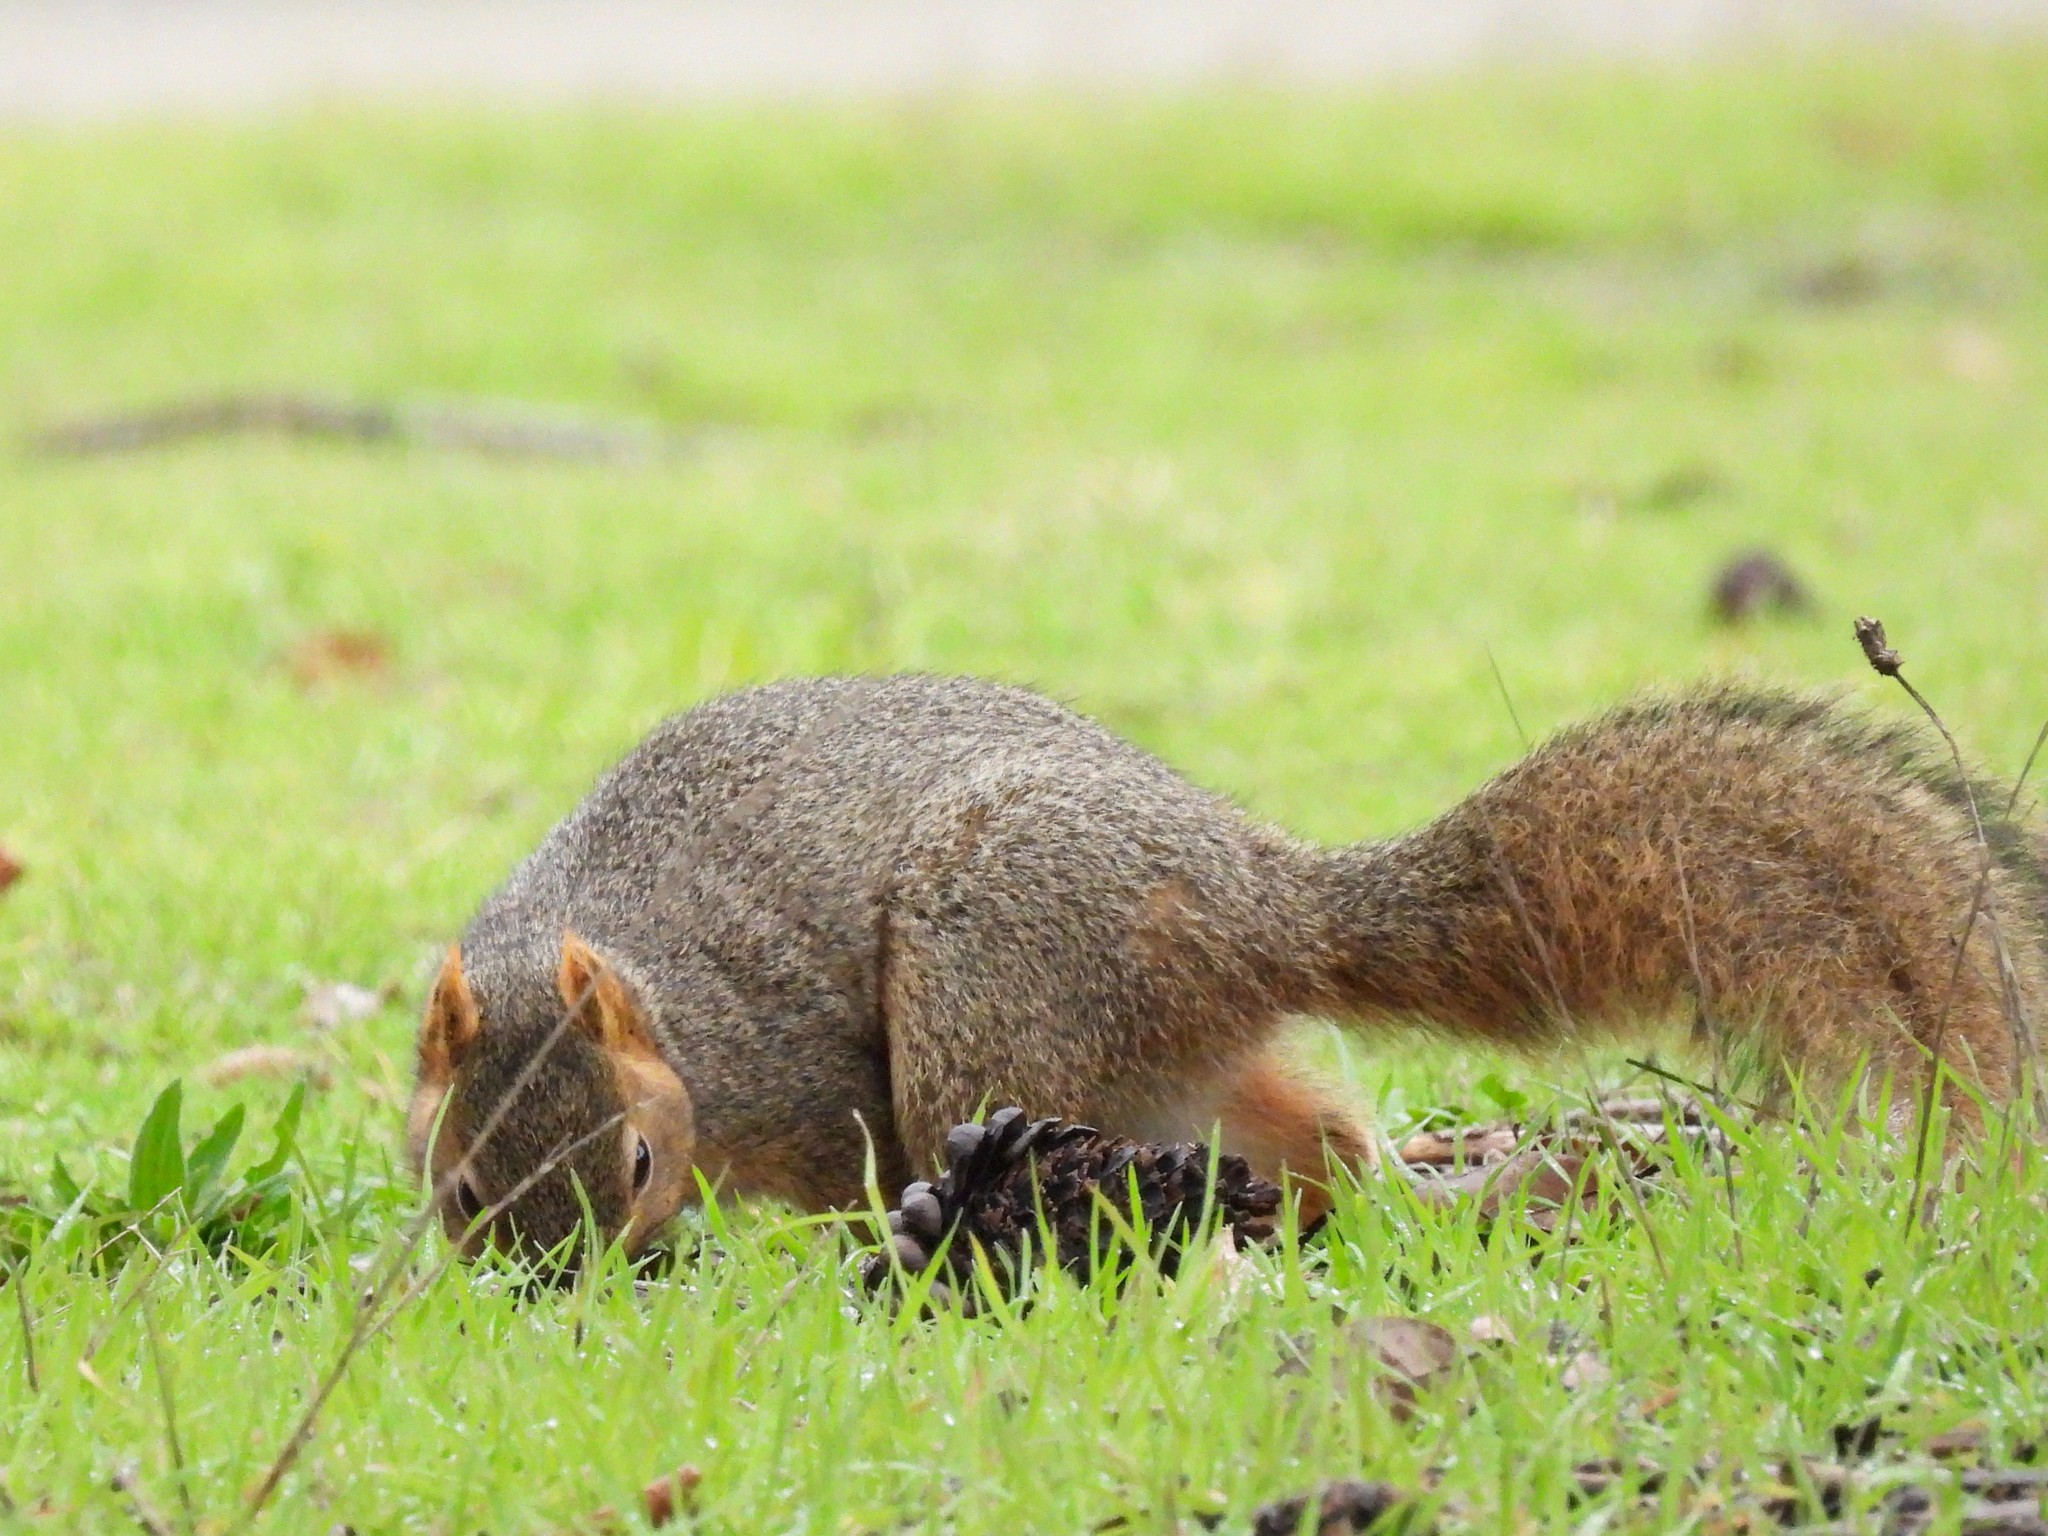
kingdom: Animalia
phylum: Chordata
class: Mammalia
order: Rodentia
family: Sciuridae
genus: Sciurus
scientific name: Sciurus niger
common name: Fox squirrel
